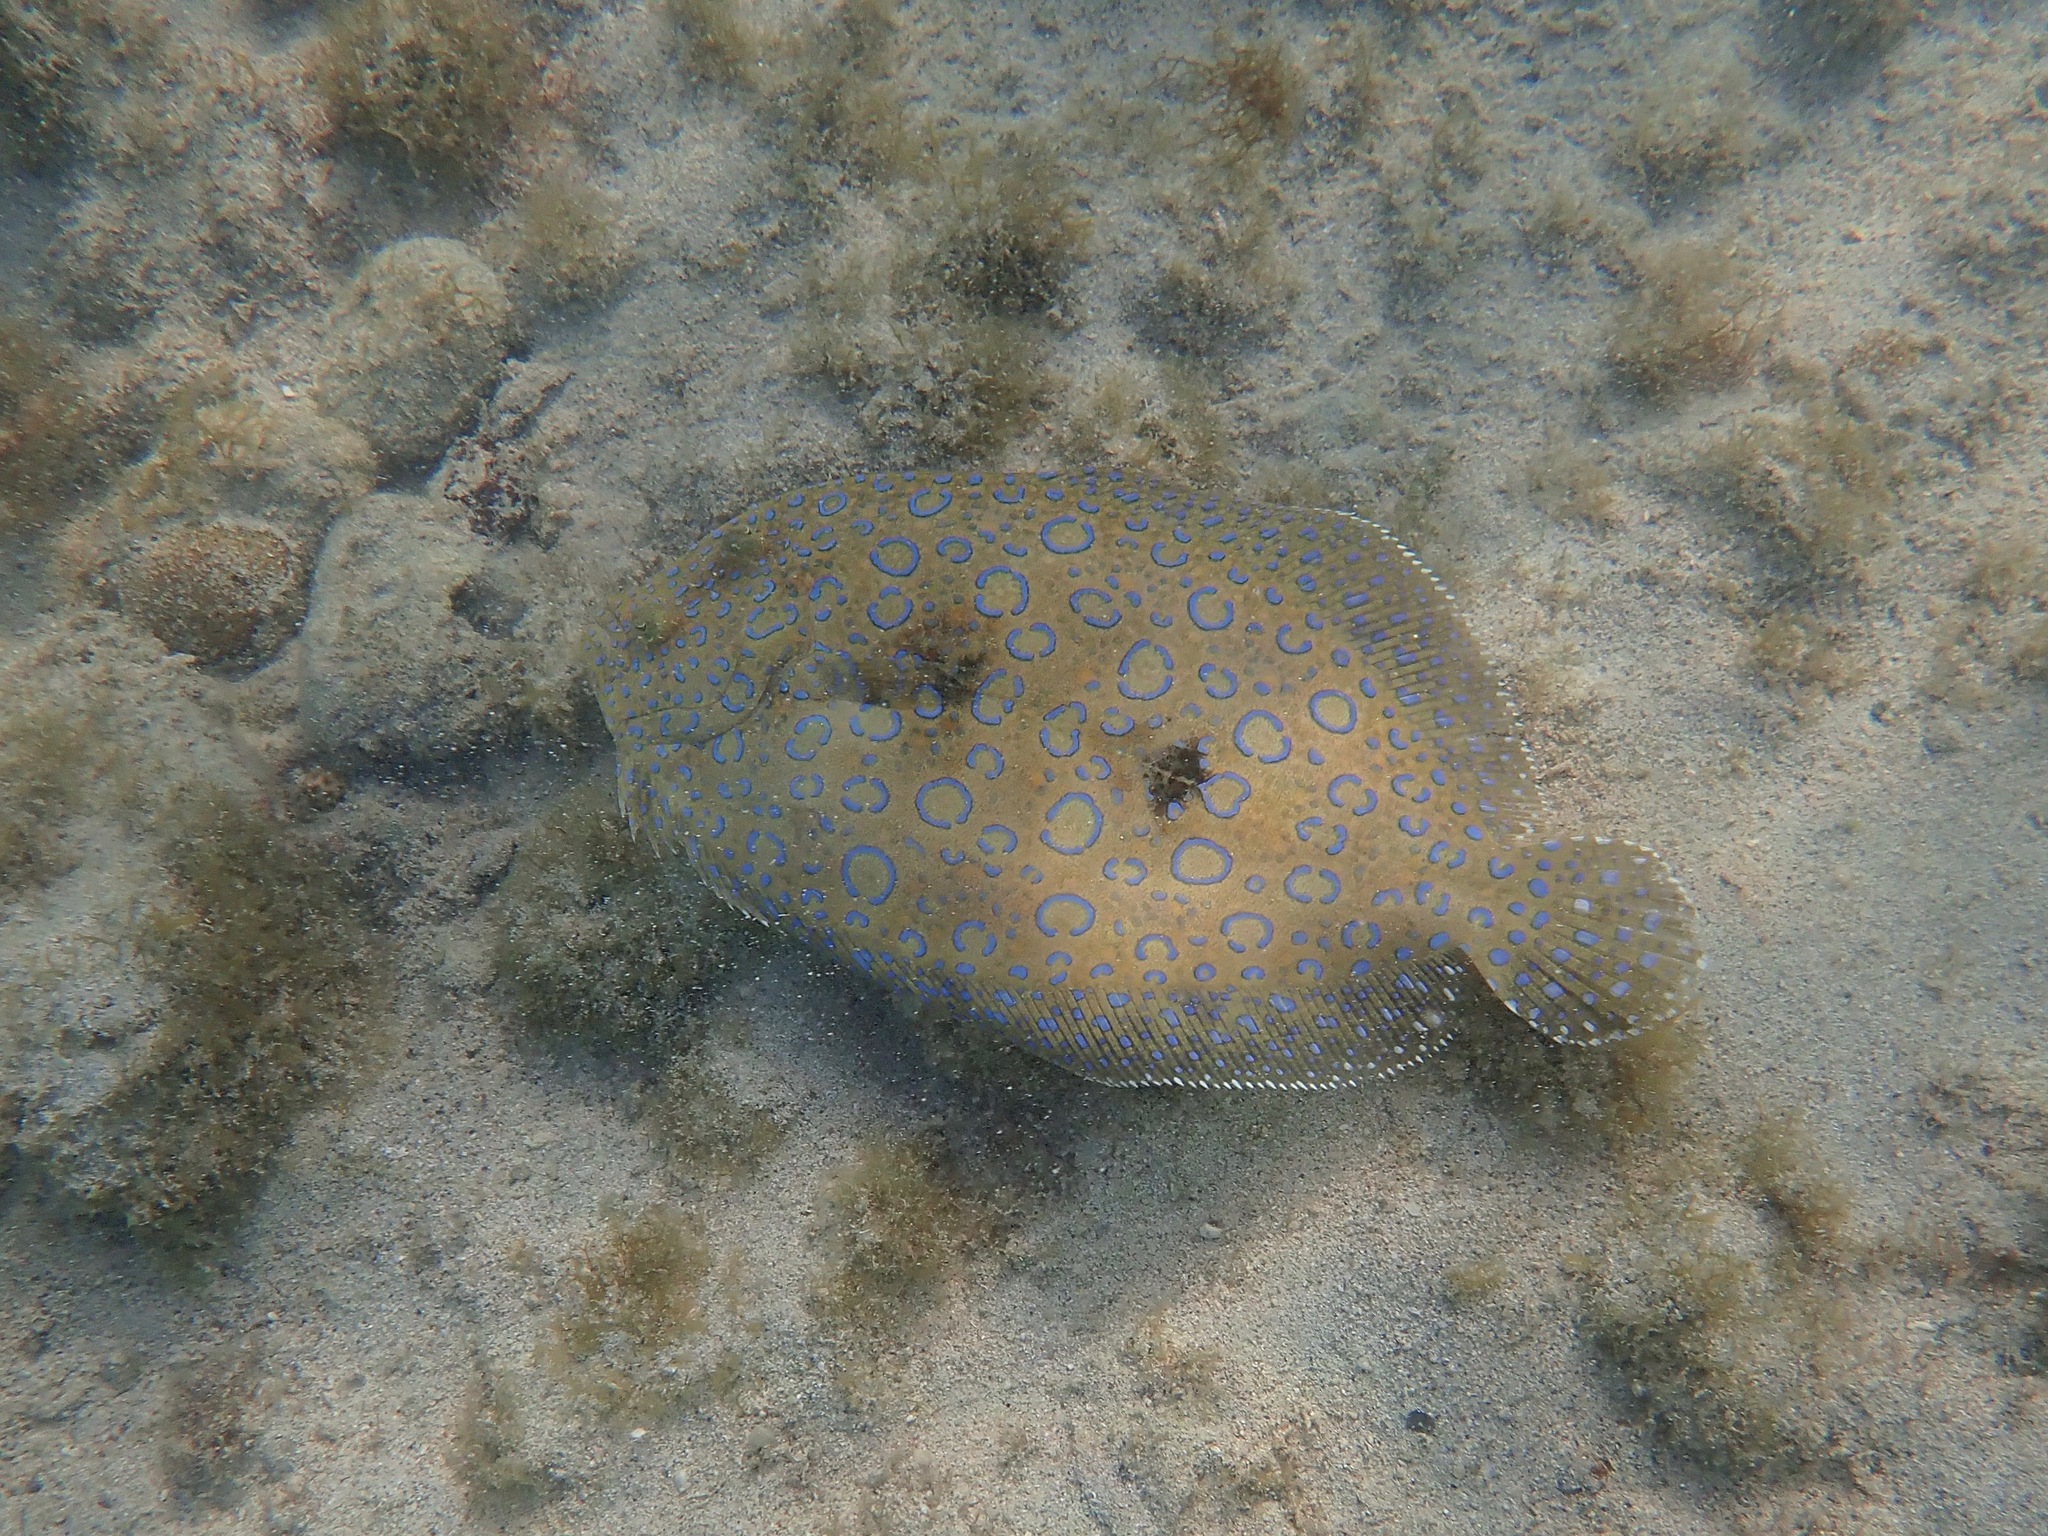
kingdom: Animalia
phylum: Chordata
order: Pleuronectiformes
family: Bothidae
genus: Bothus
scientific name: Bothus lunatus
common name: Peacock flounder
